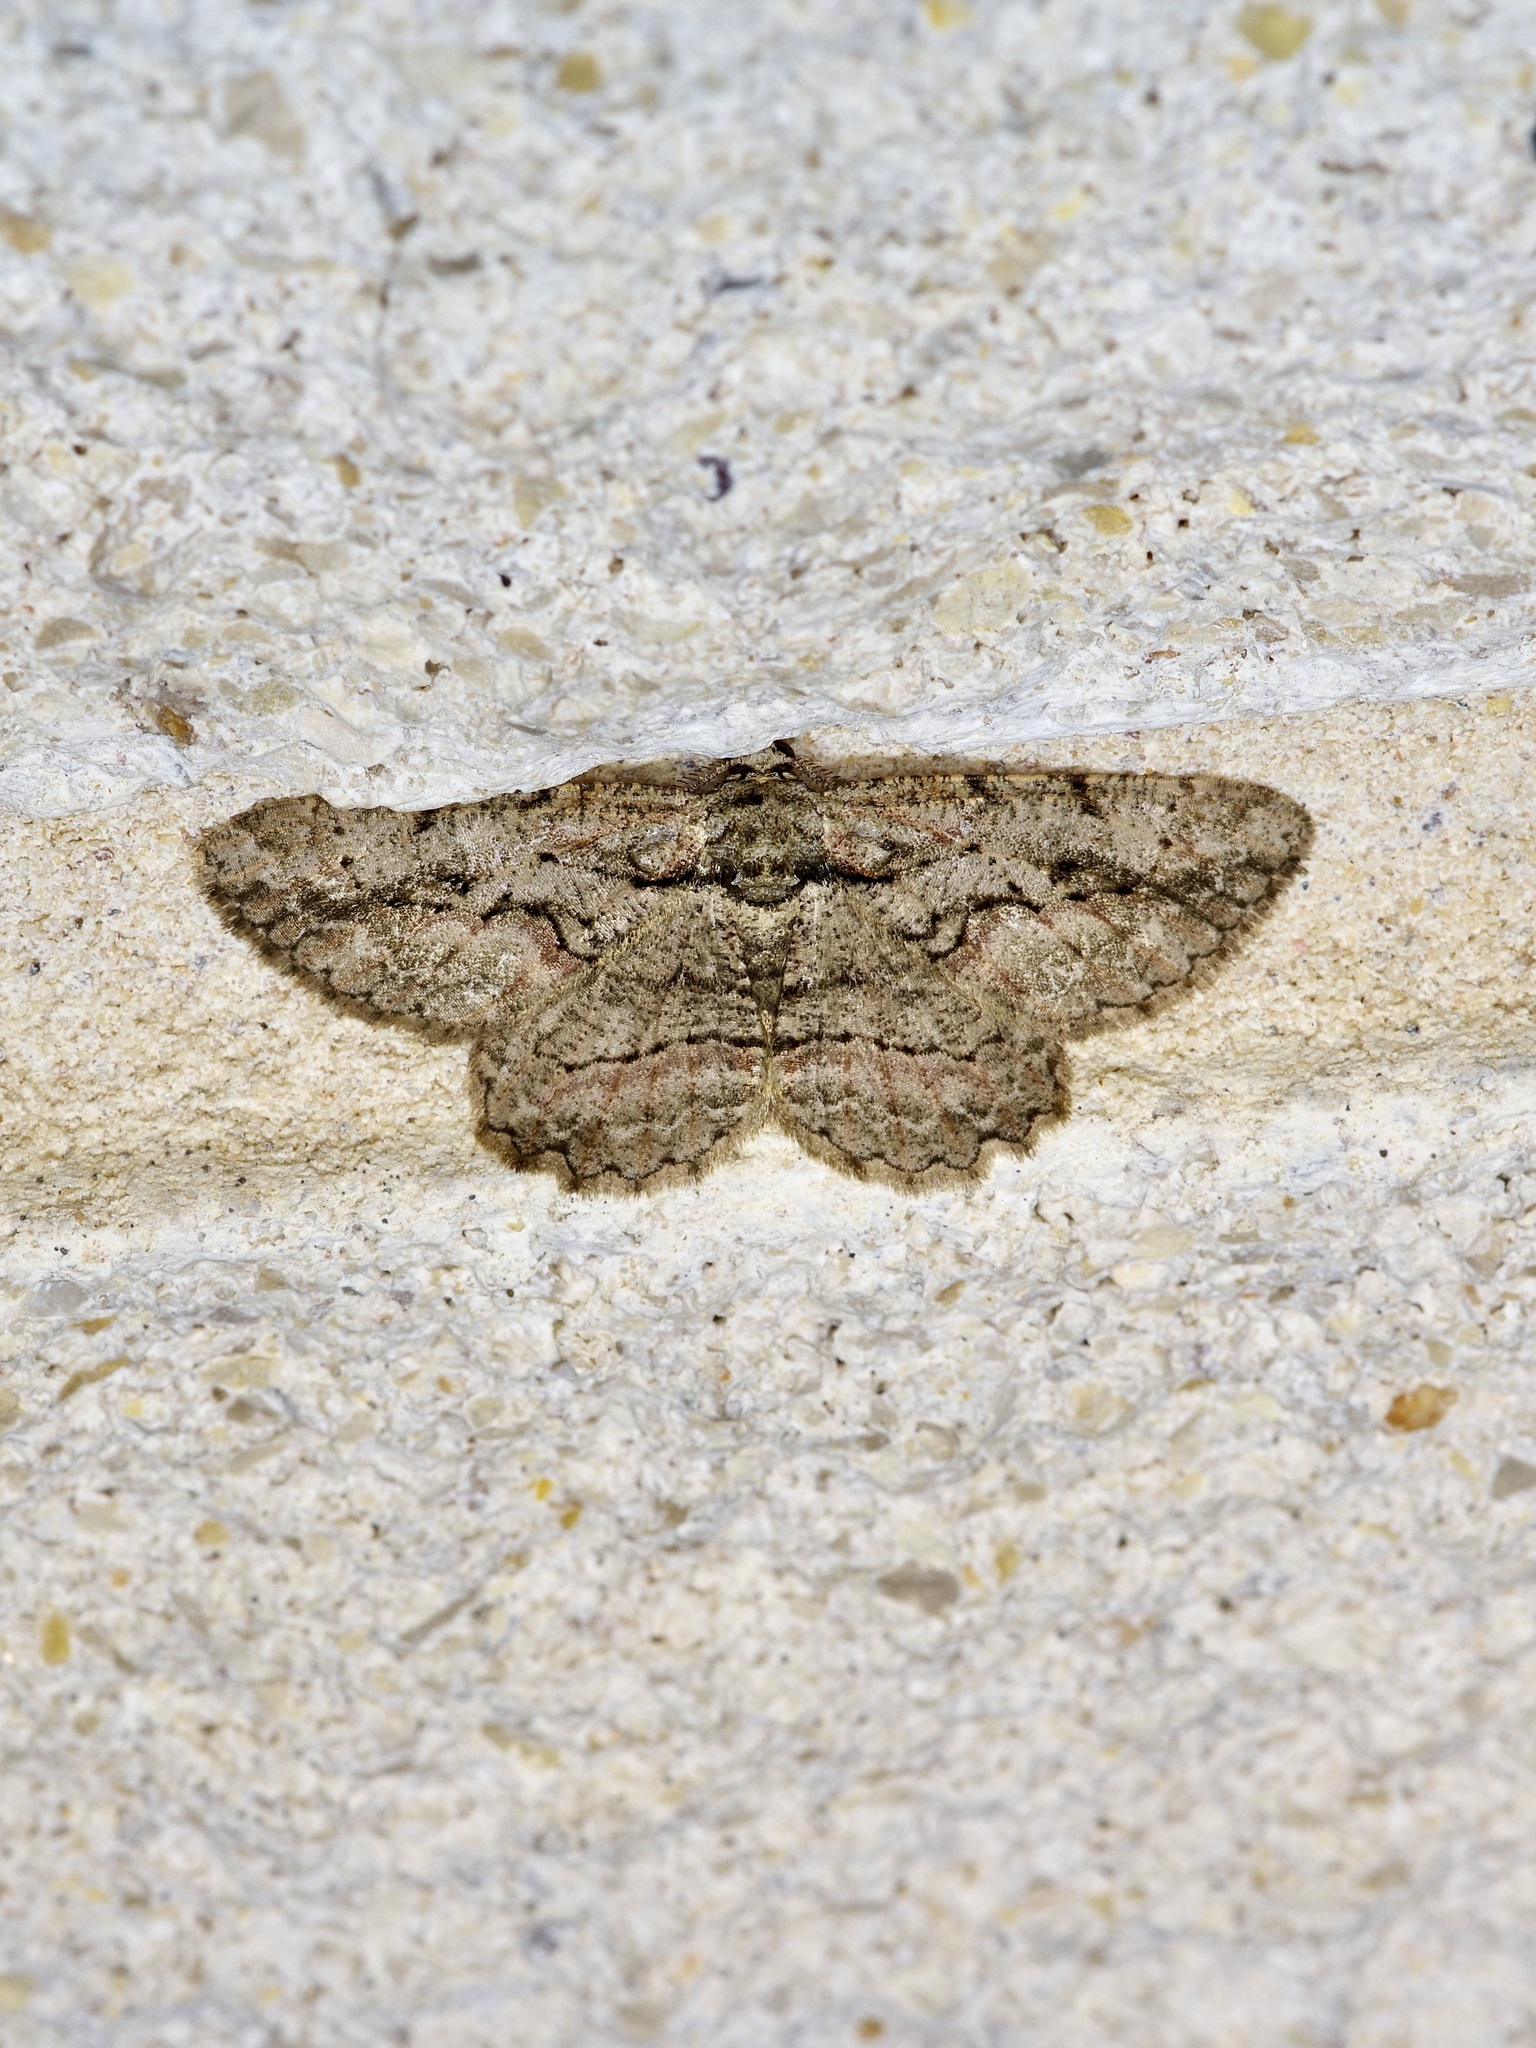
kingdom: Animalia
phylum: Arthropoda
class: Insecta
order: Lepidoptera
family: Geometridae
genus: Anavitrinella
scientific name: Anavitrinella pampinaria
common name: Common gray
